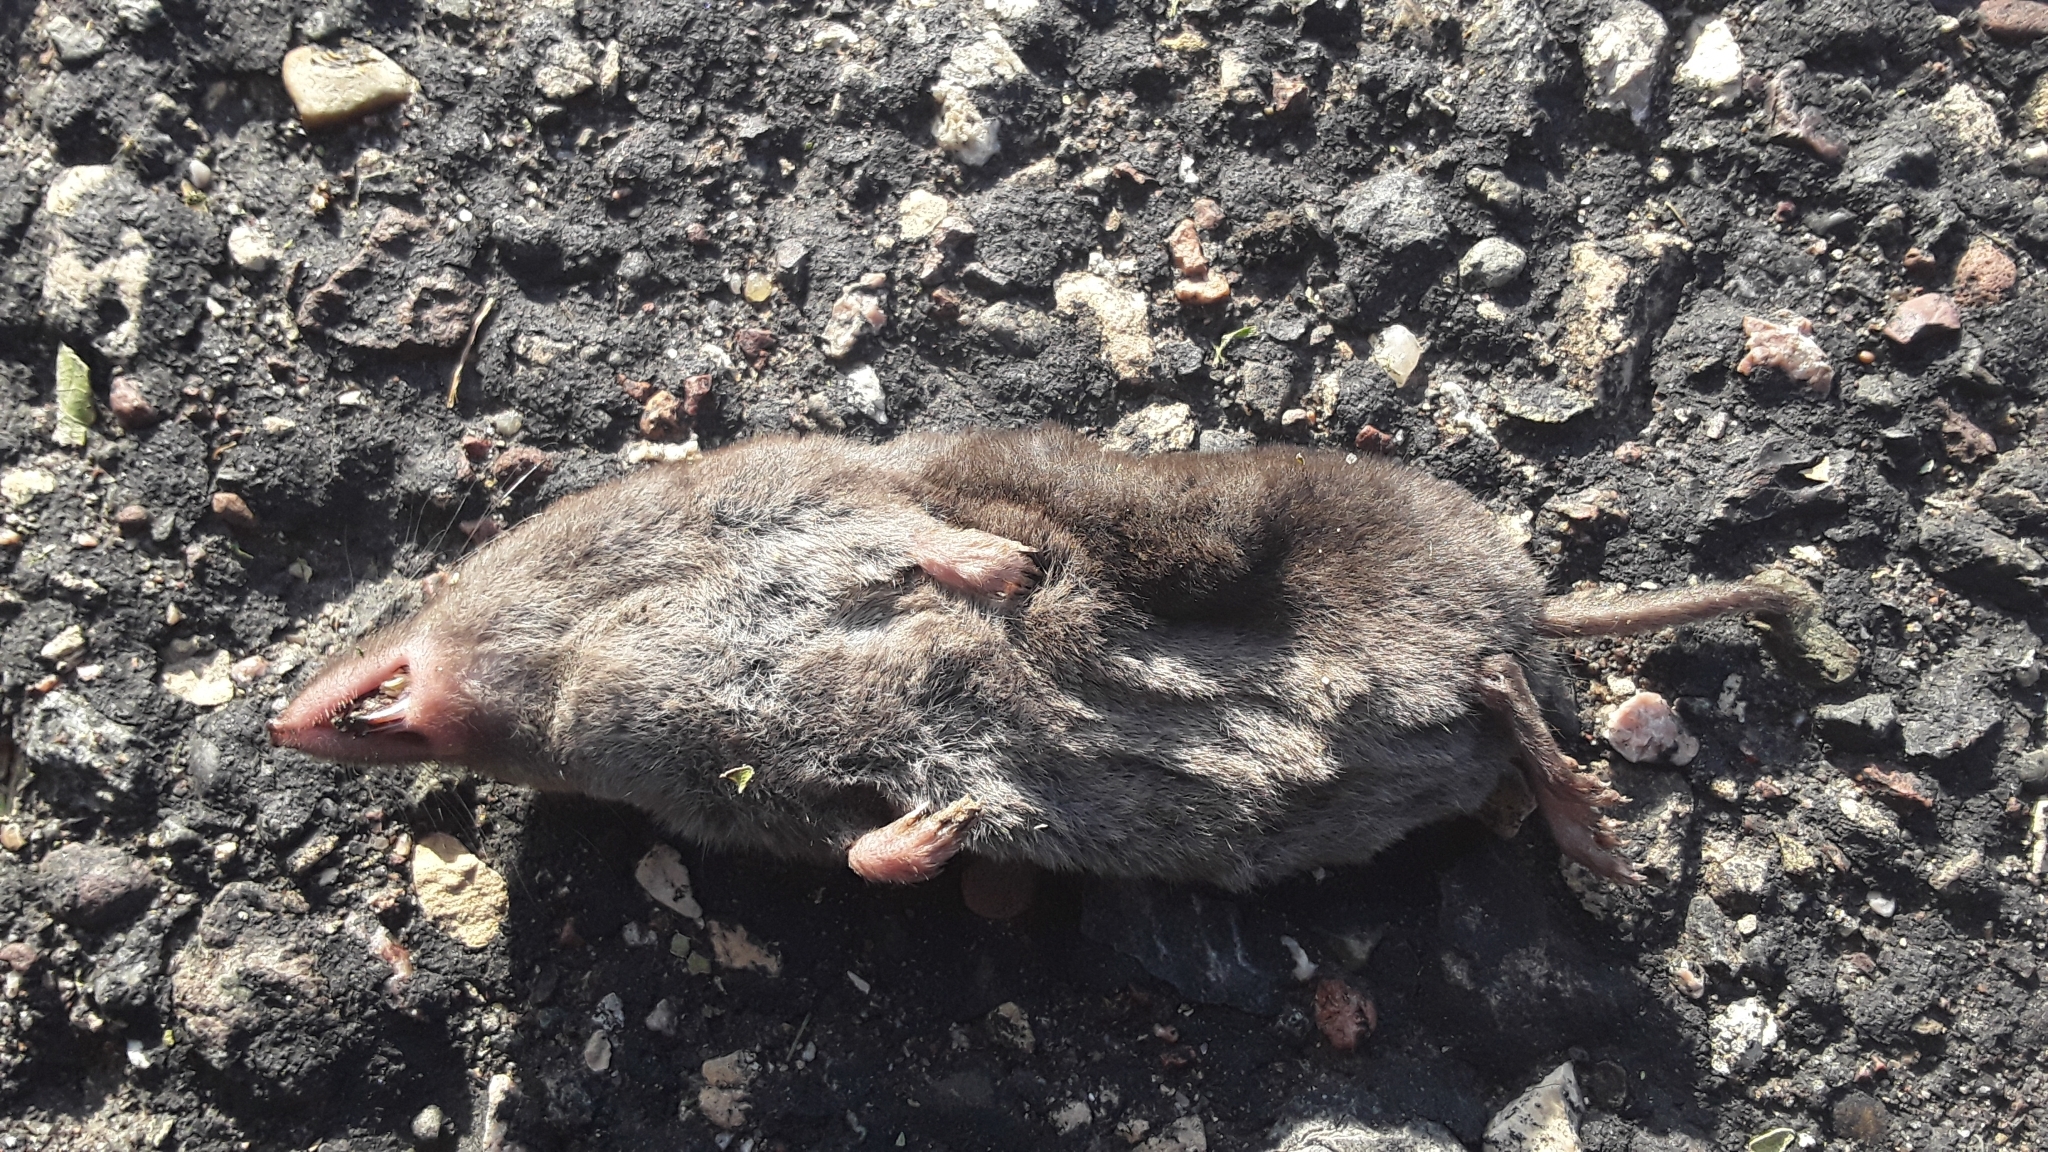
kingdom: Animalia
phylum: Chordata
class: Mammalia
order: Soricomorpha
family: Soricidae
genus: Blarina
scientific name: Blarina brevicauda
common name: Northern short-tailed shrew
